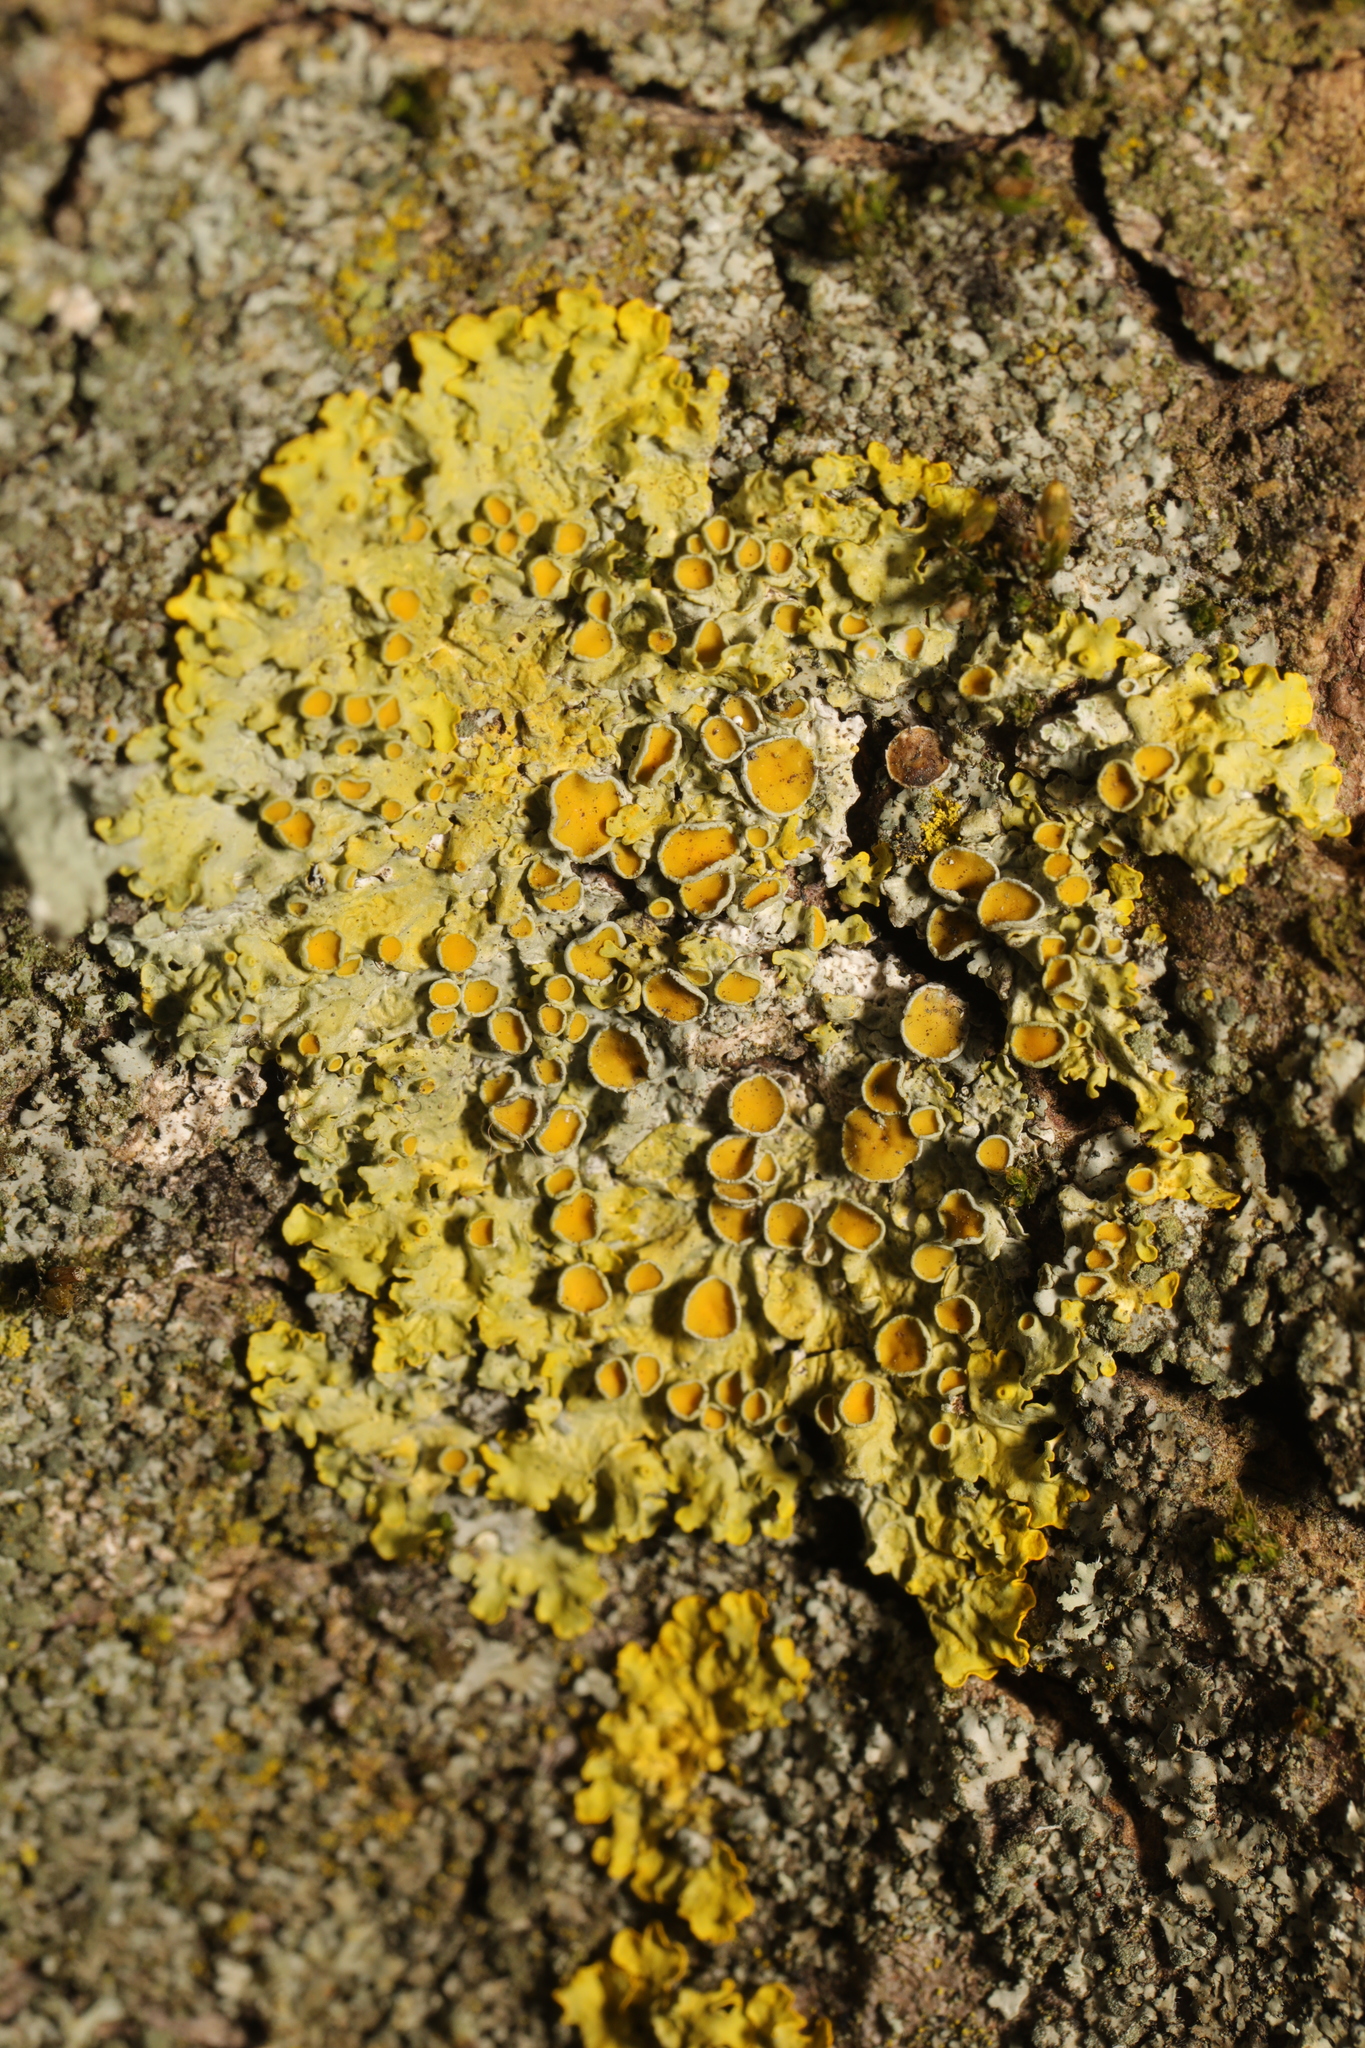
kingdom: Fungi
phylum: Ascomycota
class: Lecanoromycetes
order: Teloschistales
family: Teloschistaceae
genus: Xanthoria
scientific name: Xanthoria parietina
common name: Common orange lichen
